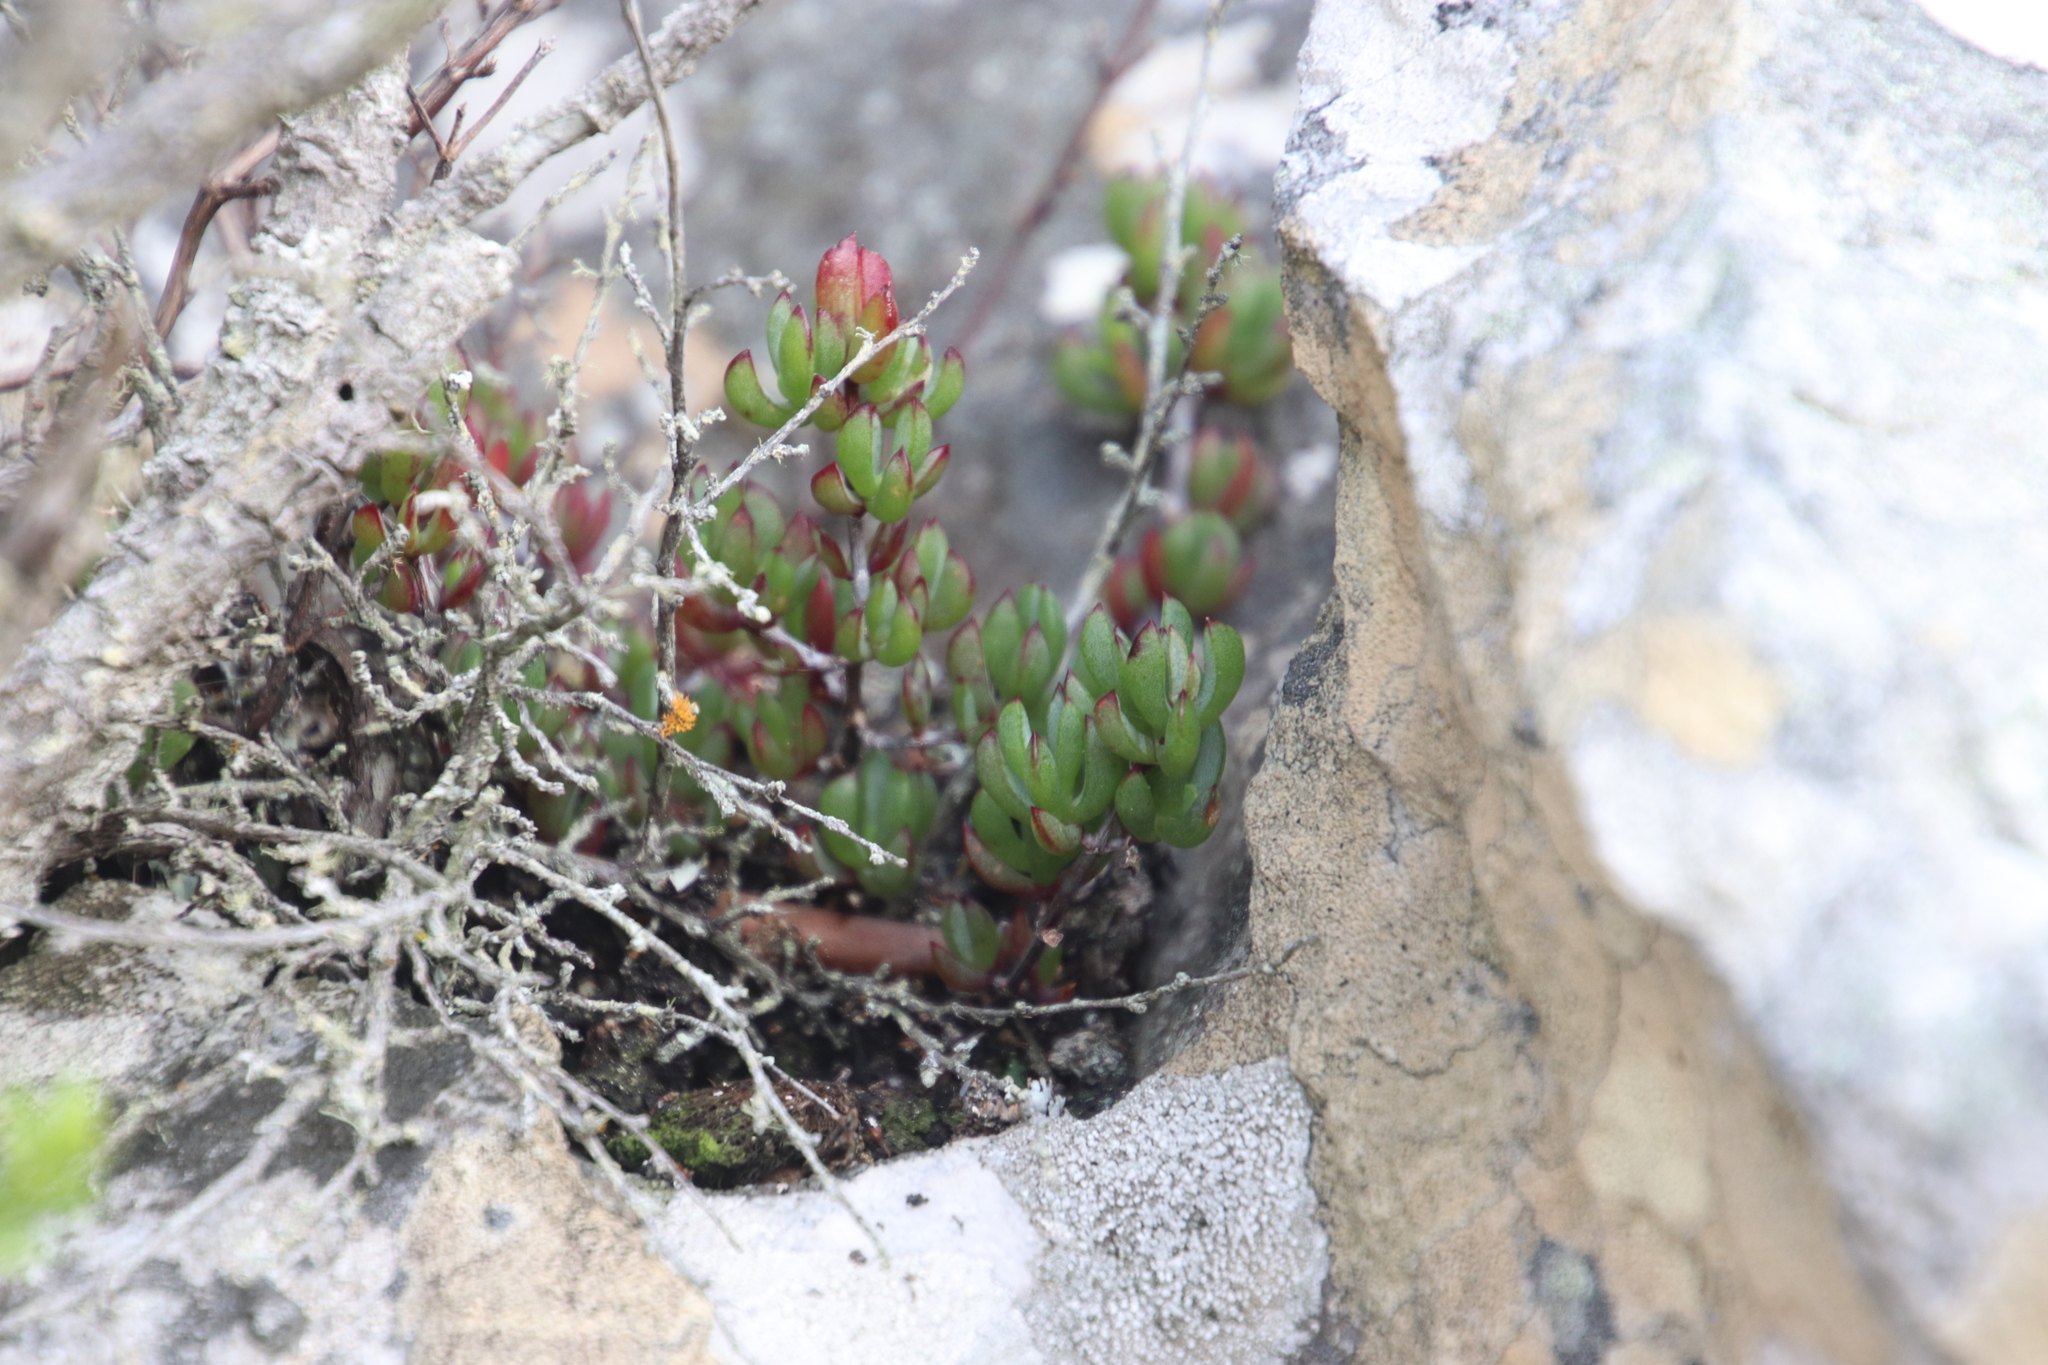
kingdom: Plantae
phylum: Tracheophyta
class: Magnoliopsida
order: Caryophyllales
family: Aizoaceae
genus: Oscularia
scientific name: Oscularia falciformis
